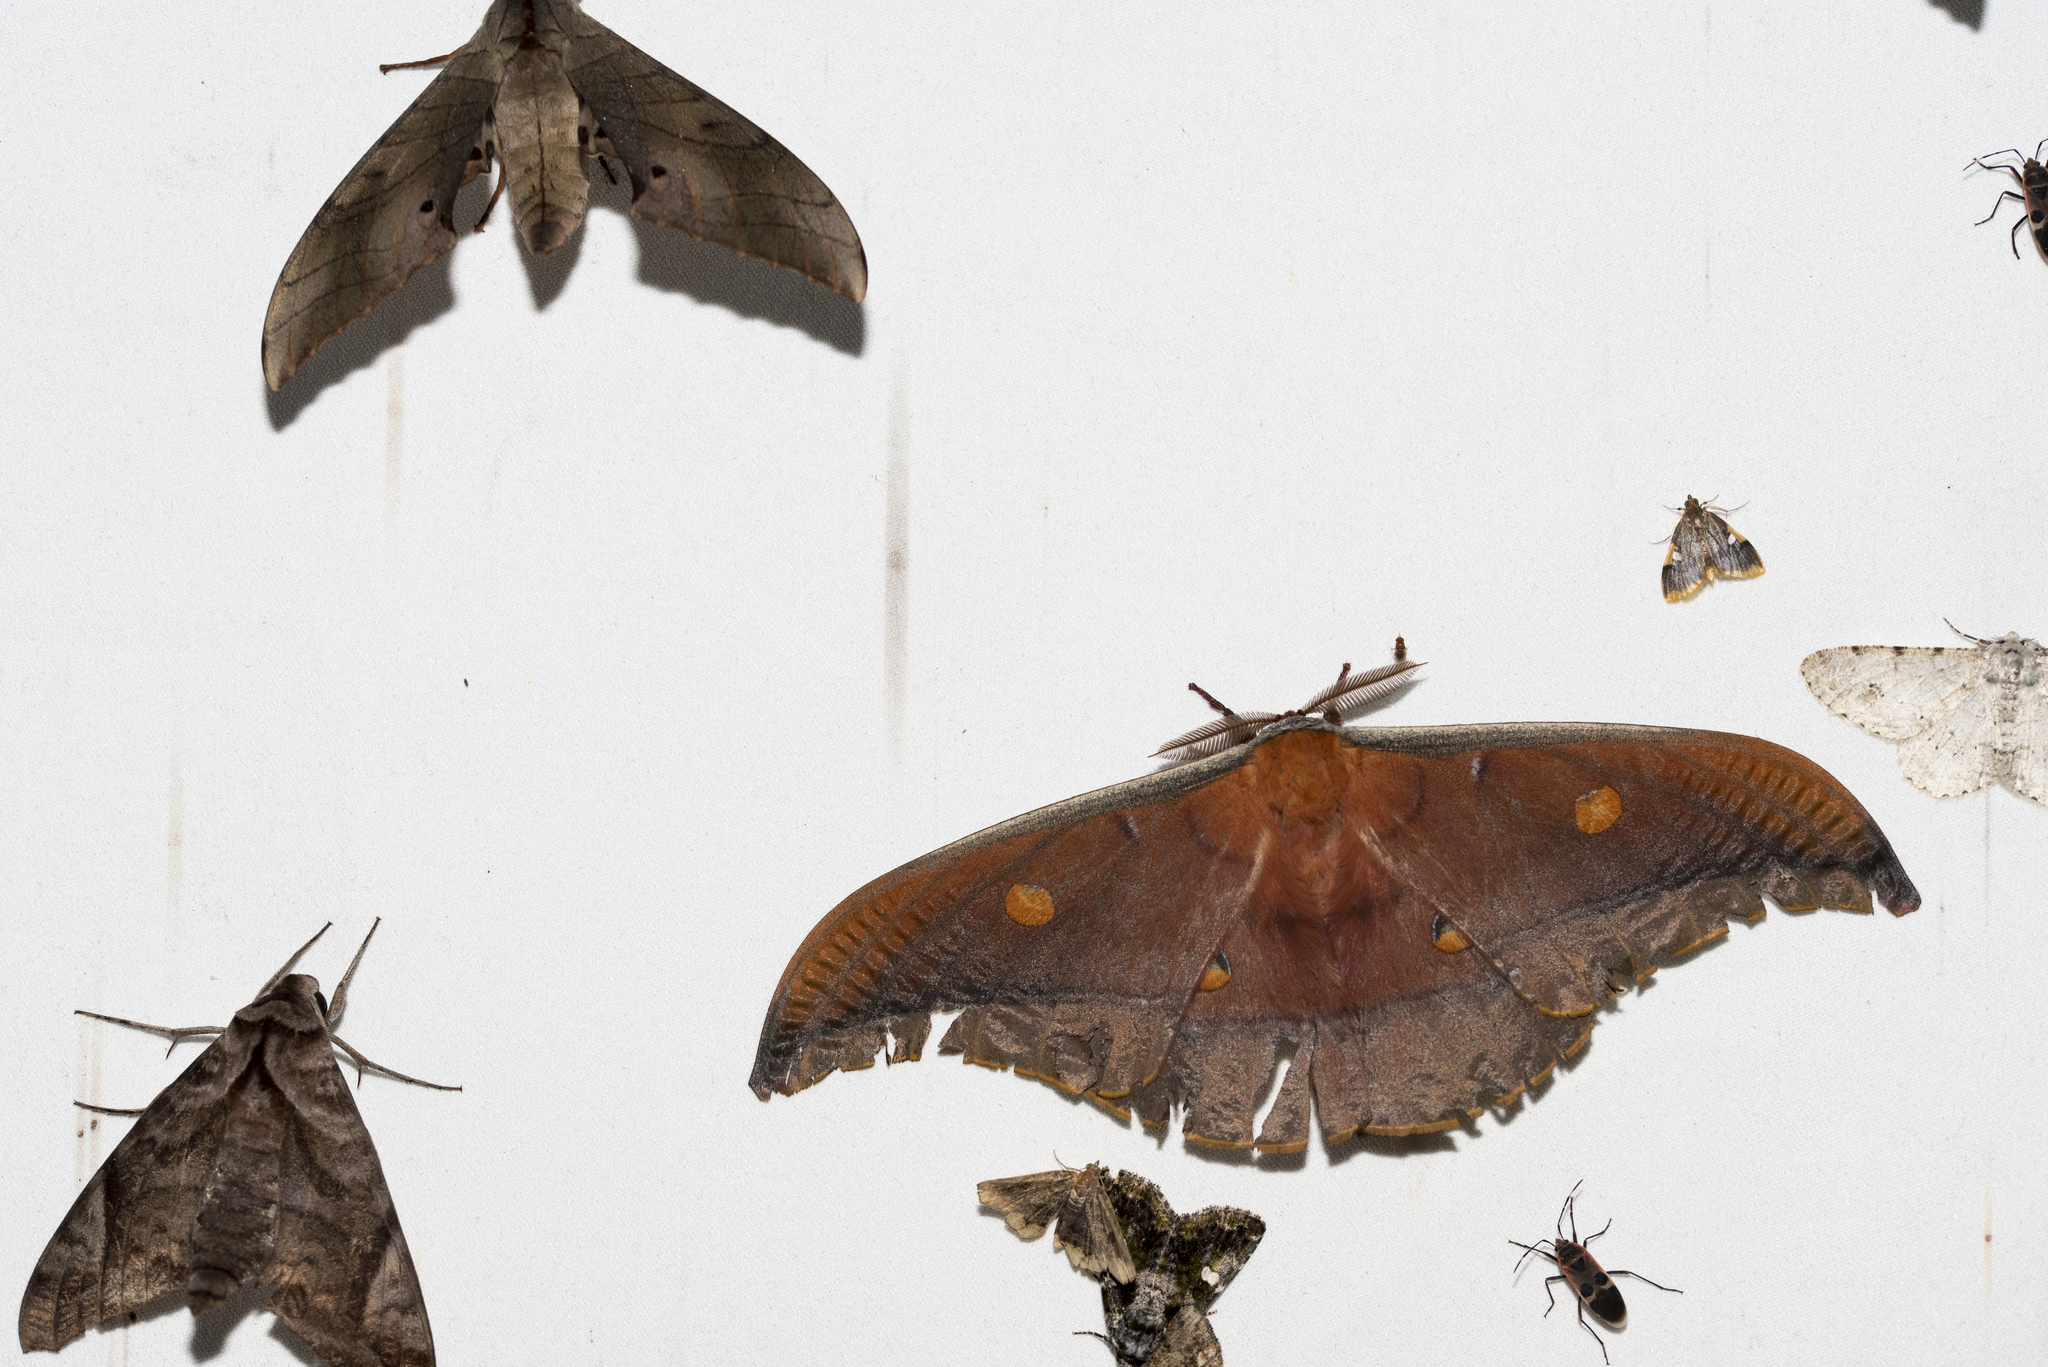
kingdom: Animalia
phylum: Arthropoda
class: Insecta
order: Lepidoptera
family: Saturniidae
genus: Antheraea
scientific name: Antheraea formosana
